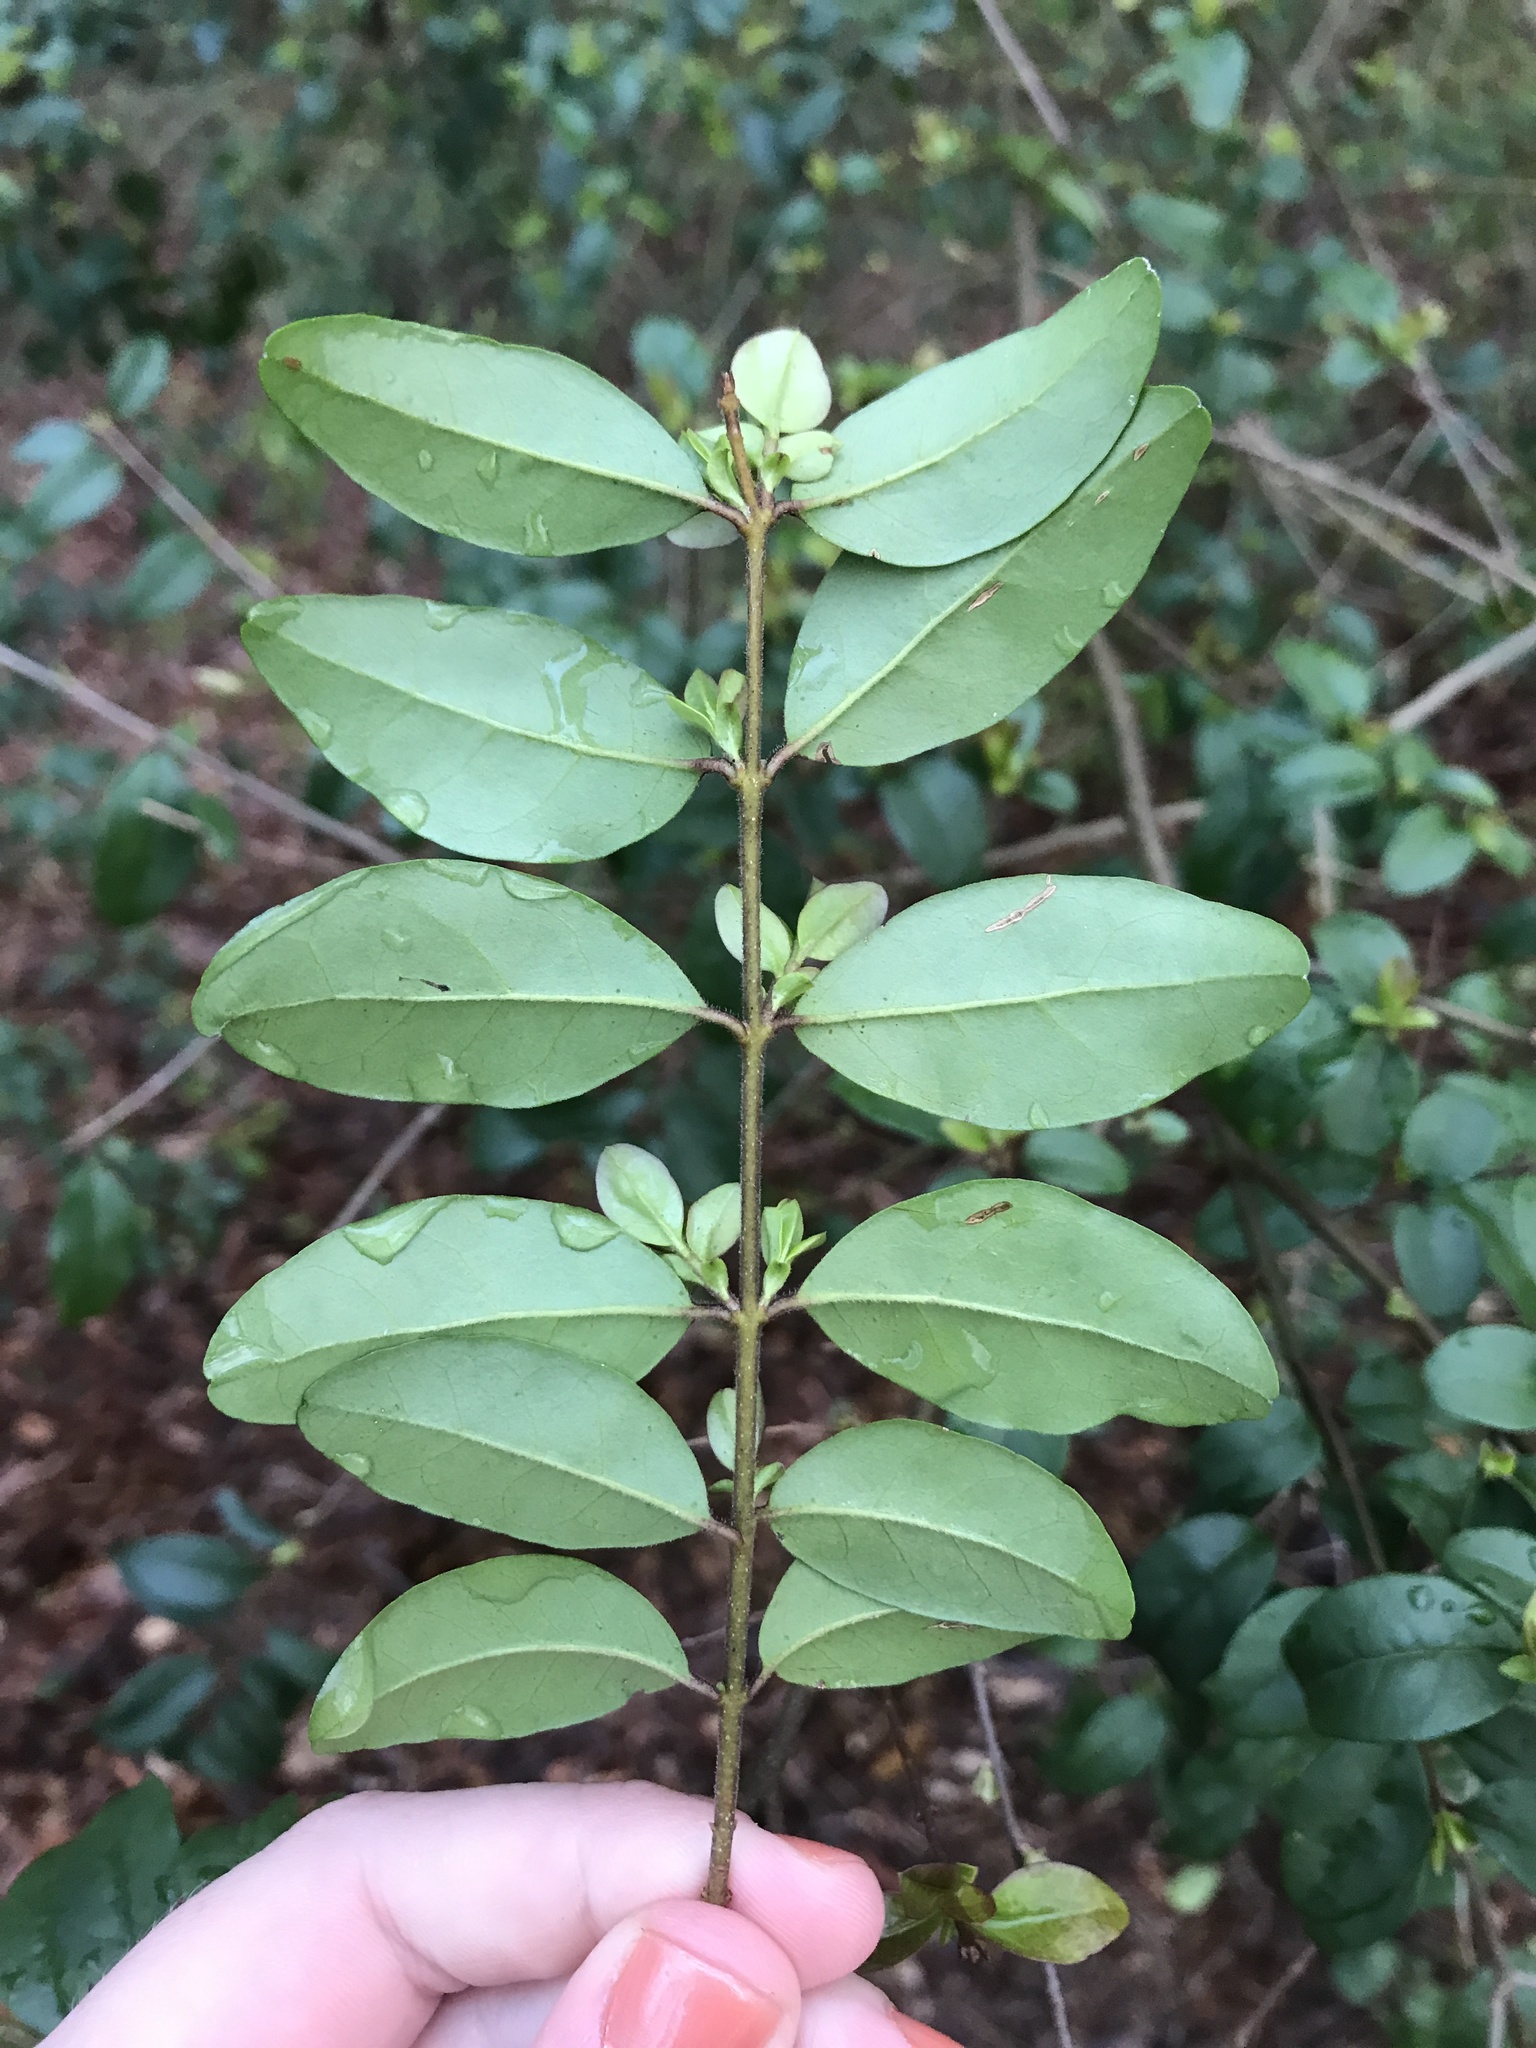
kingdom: Plantae
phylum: Tracheophyta
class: Magnoliopsida
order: Lamiales
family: Oleaceae
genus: Ligustrum
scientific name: Ligustrum sinense
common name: Chinese privet
